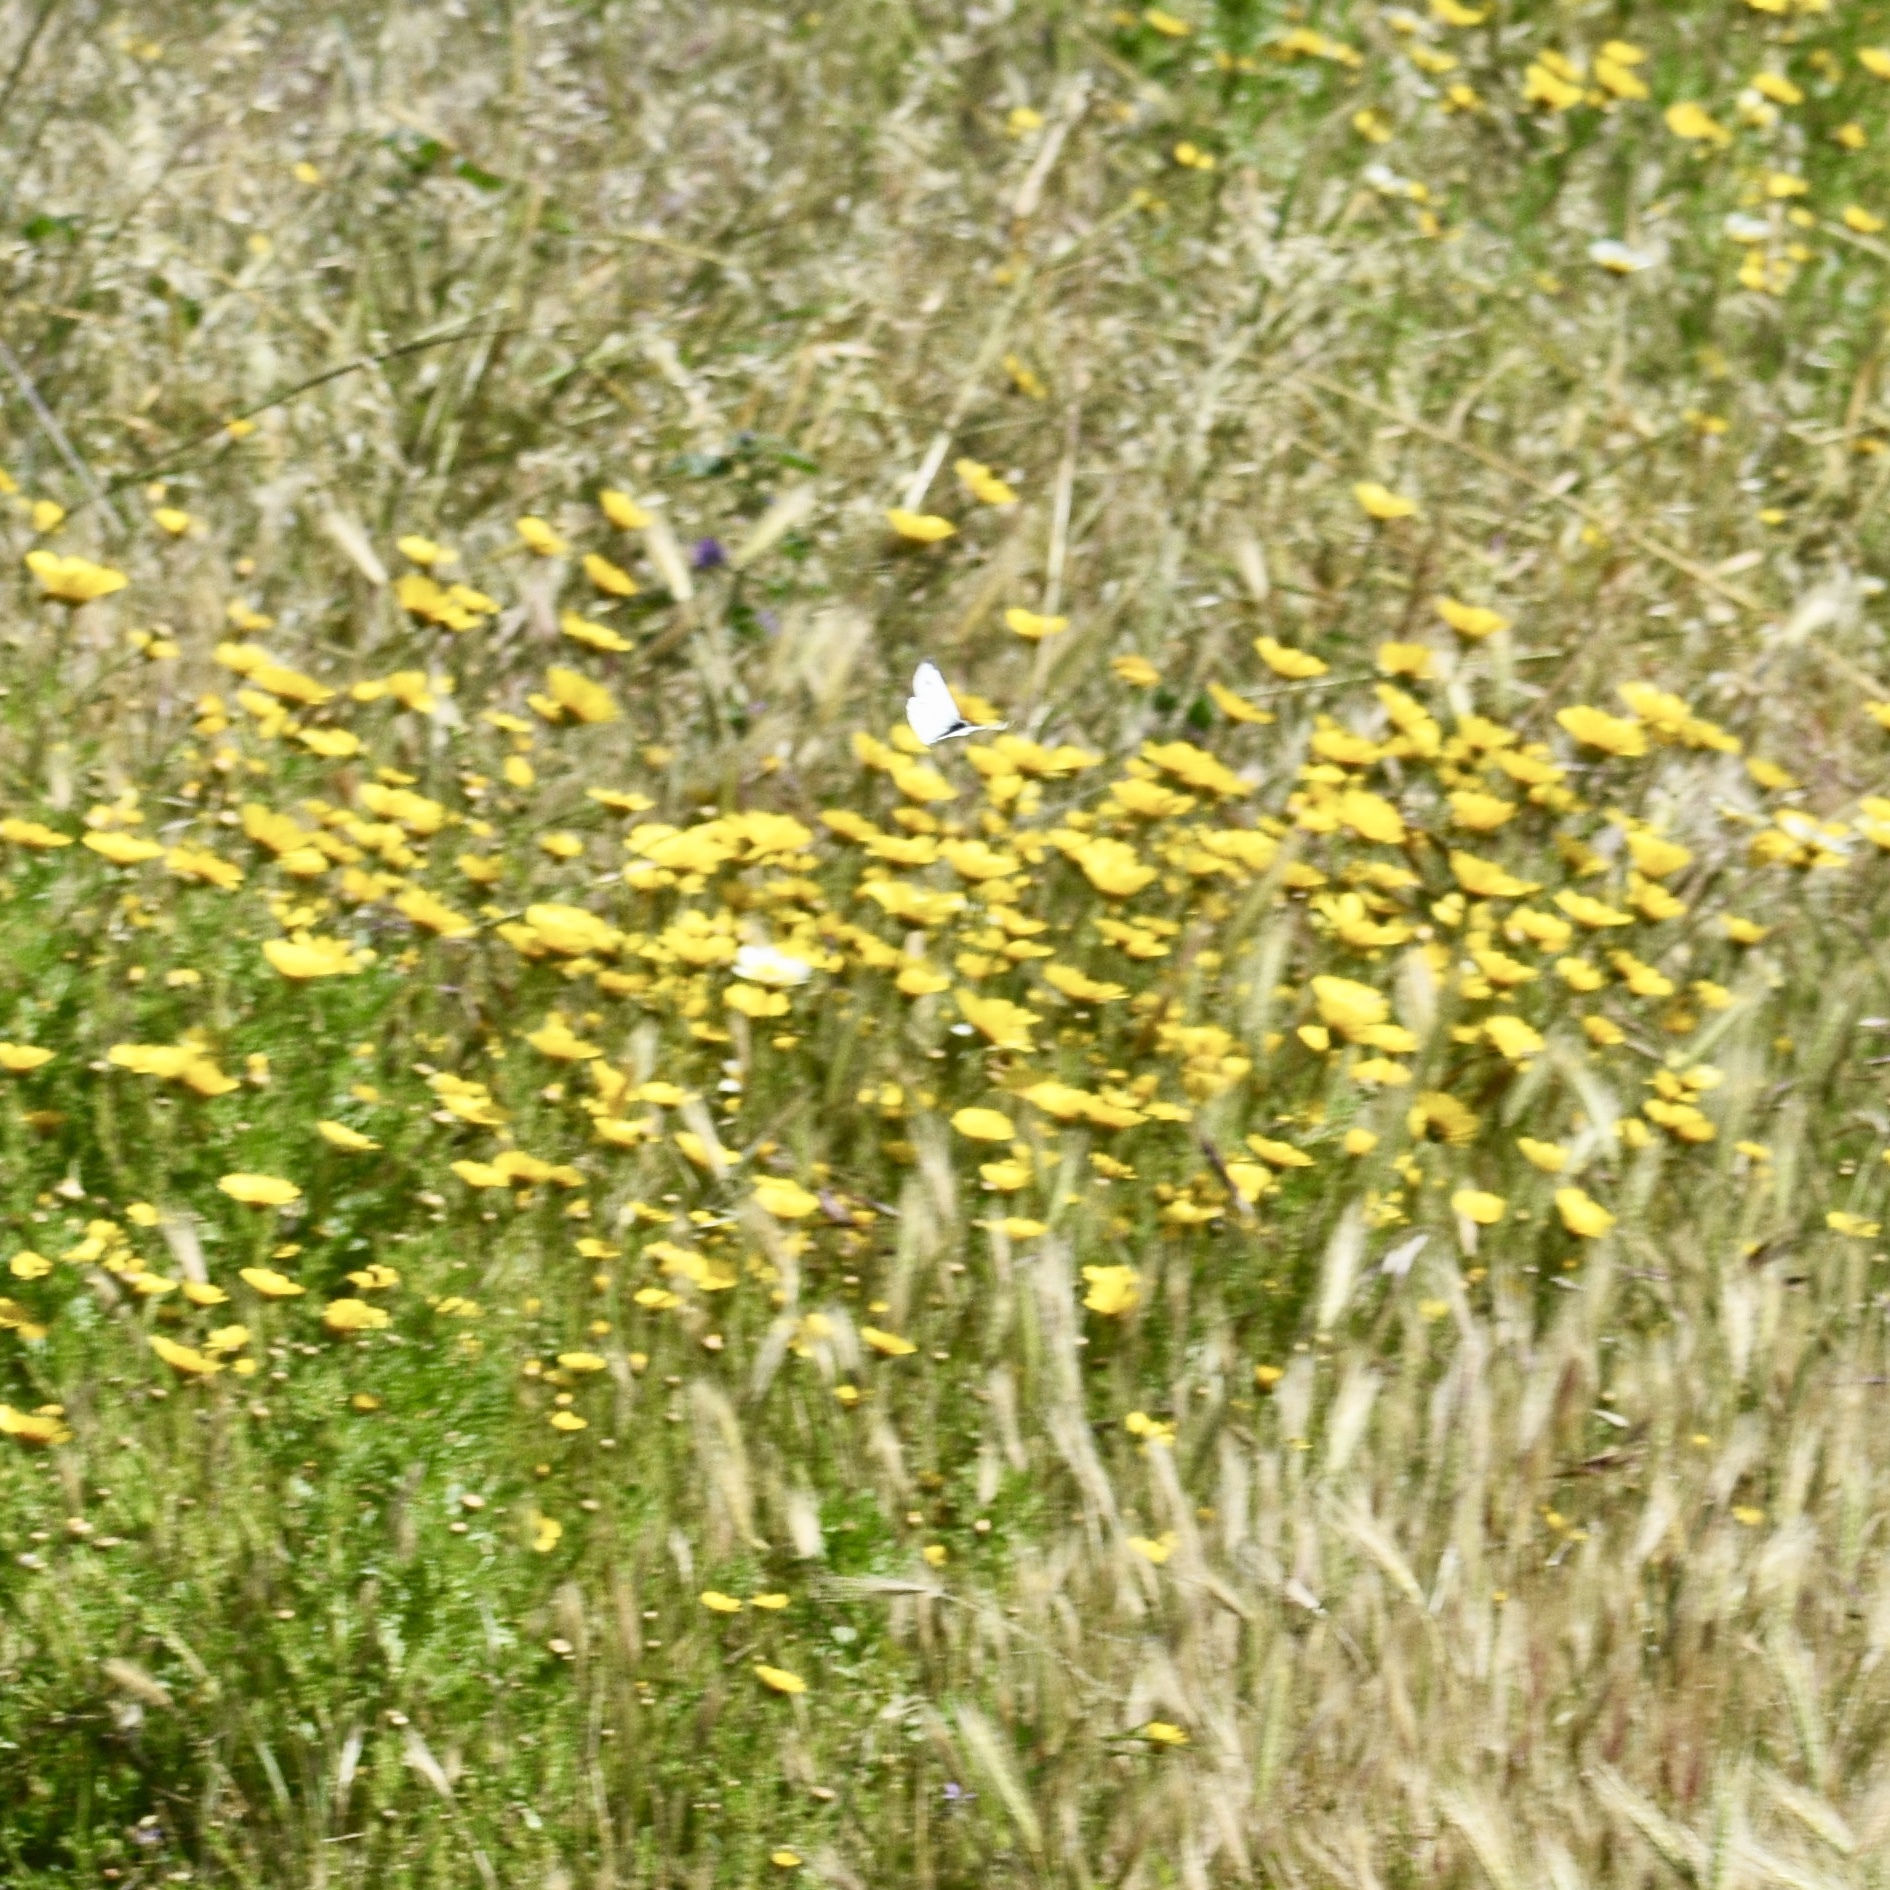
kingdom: Animalia
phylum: Arthropoda
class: Insecta
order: Lepidoptera
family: Pieridae
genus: Pieris
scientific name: Pieris rapae
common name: Small white
